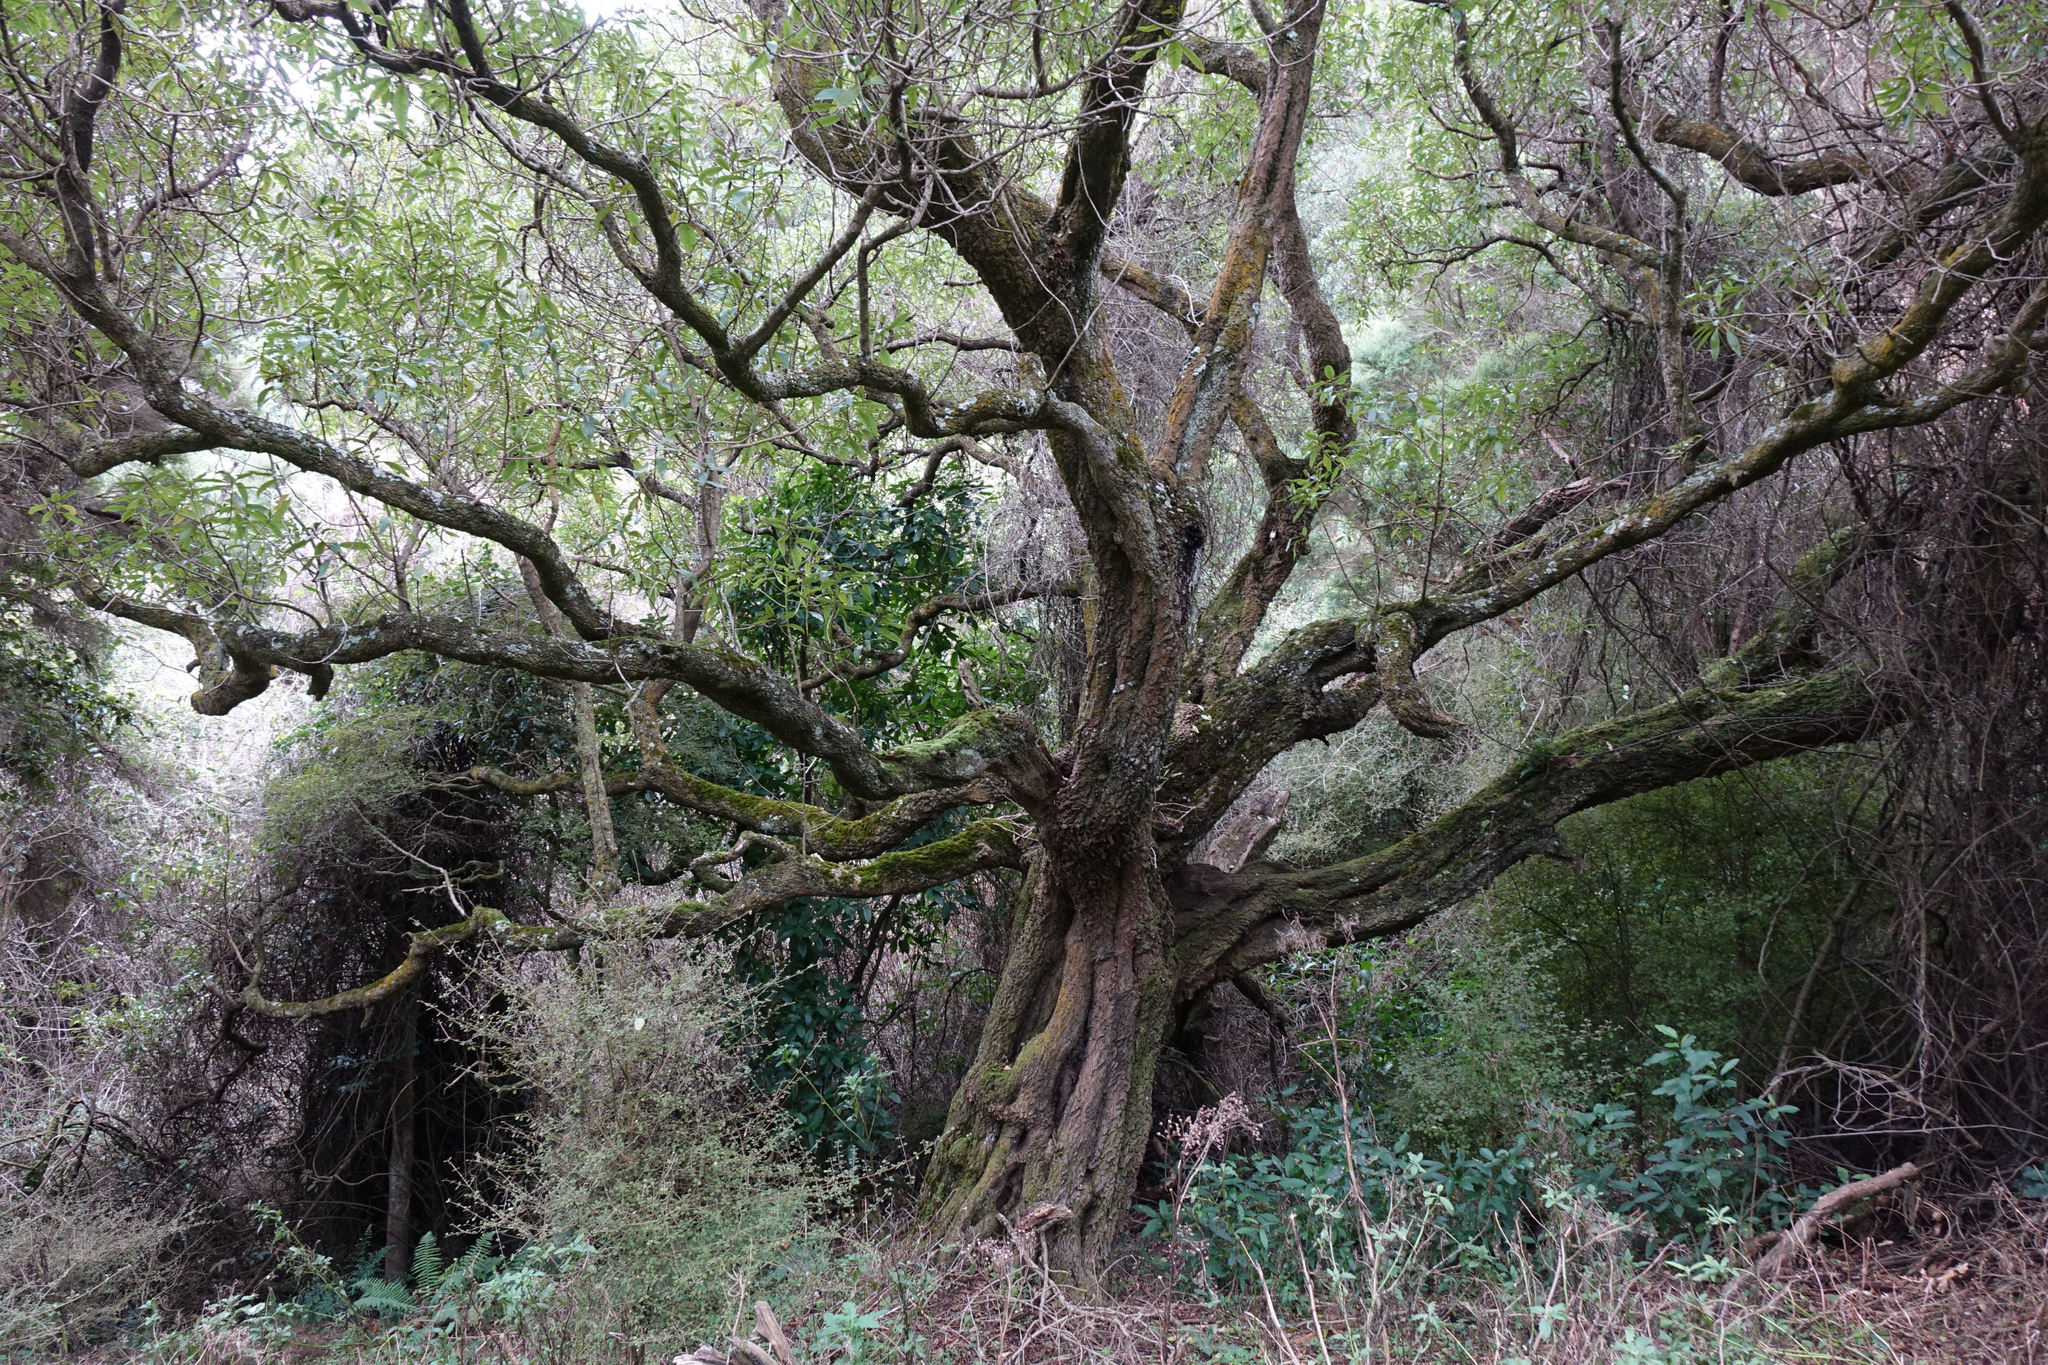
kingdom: Plantae
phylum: Tracheophyta
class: Magnoliopsida
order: Lamiales
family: Scrophulariaceae
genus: Myoporum
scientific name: Myoporum laetum
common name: Ngaio tree
